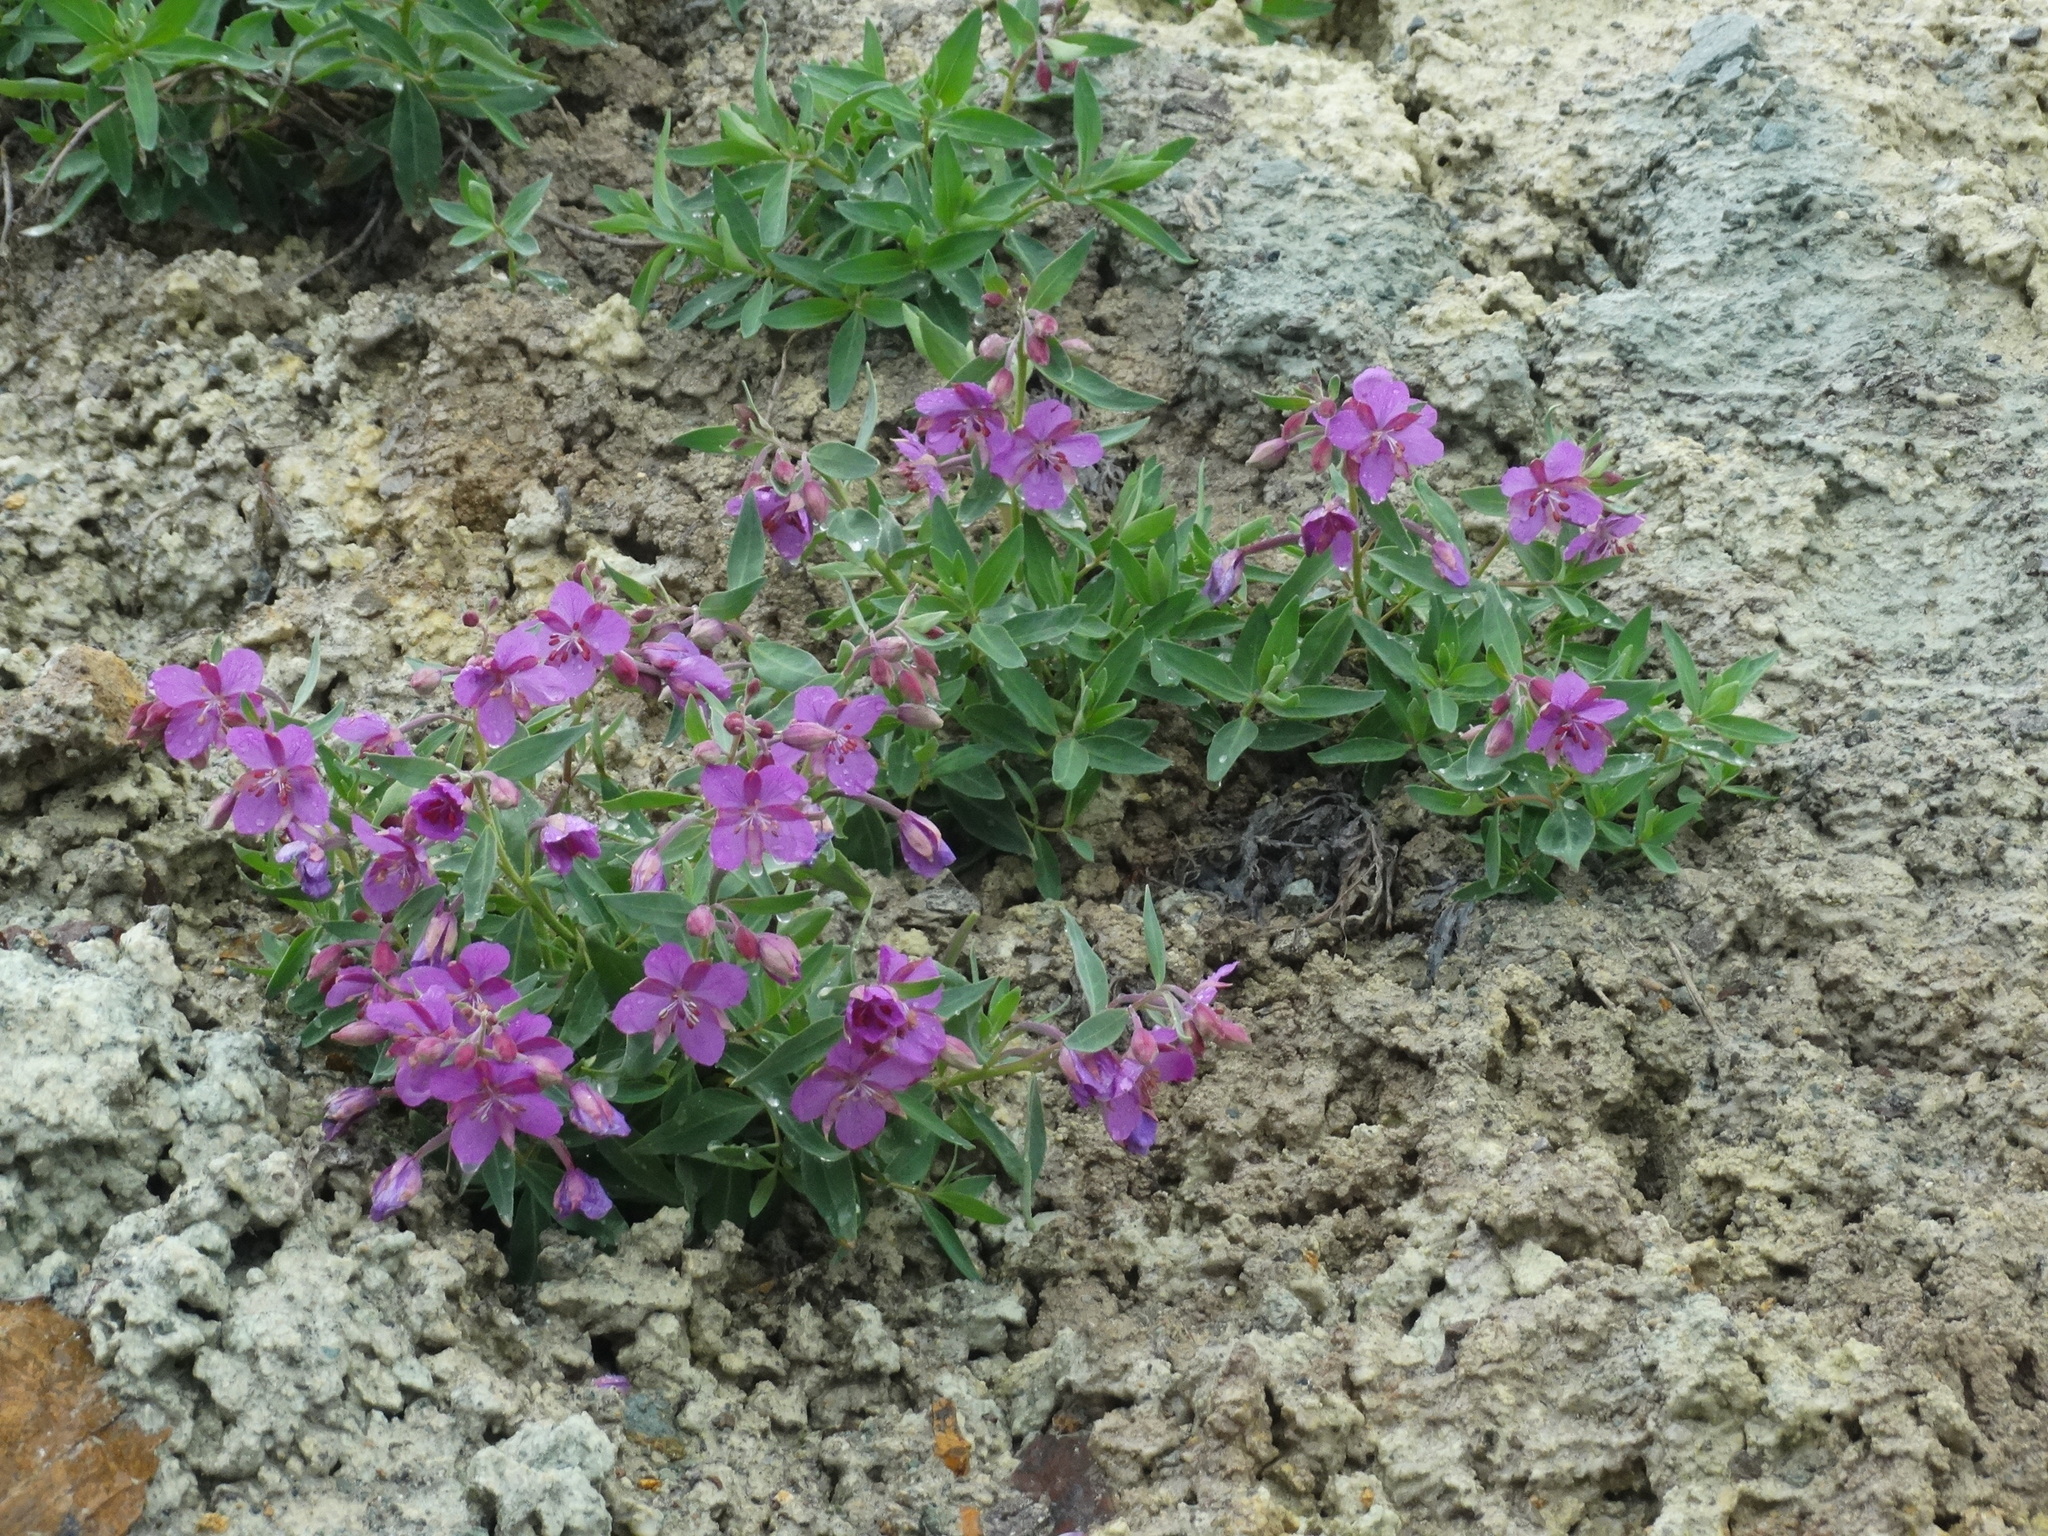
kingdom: Plantae
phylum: Tracheophyta
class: Magnoliopsida
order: Myrtales
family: Onagraceae
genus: Chamaenerion
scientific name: Chamaenerion latifolium
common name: Dwarf fireweed
